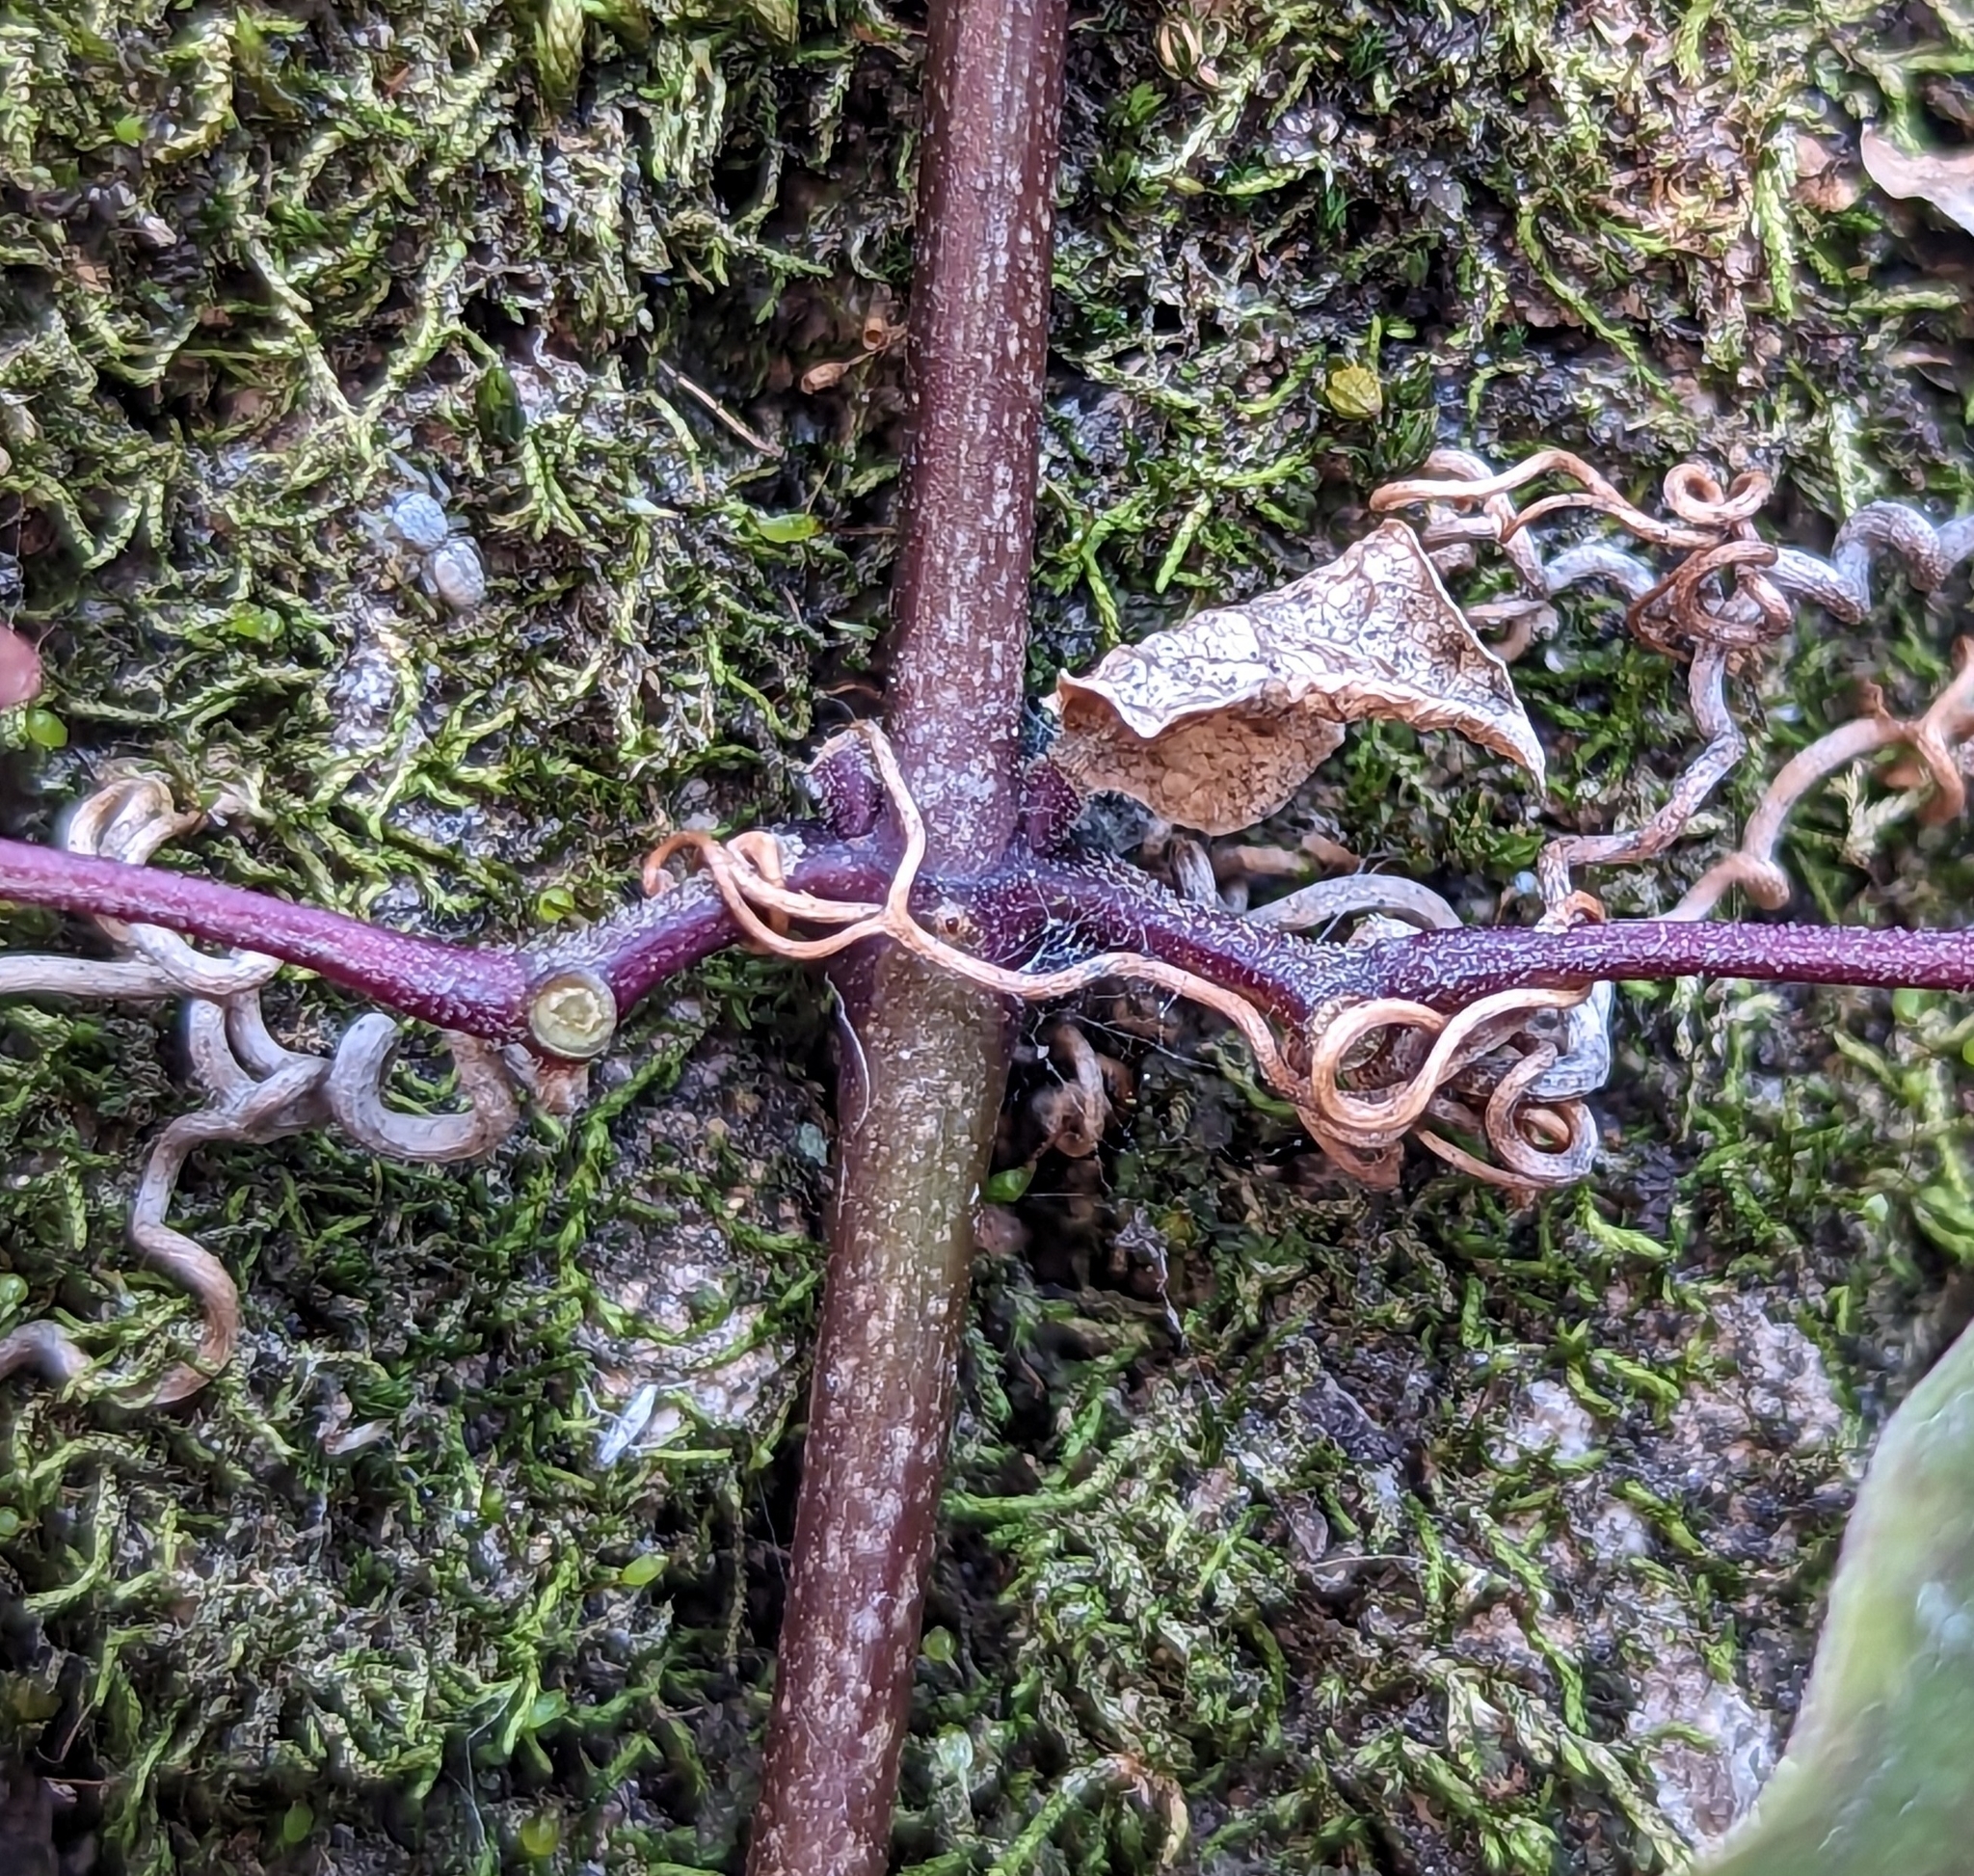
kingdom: Plantae
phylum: Tracheophyta
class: Magnoliopsida
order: Lamiales
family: Bignoniaceae
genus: Bignonia
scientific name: Bignonia capreolata
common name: Crossvine
